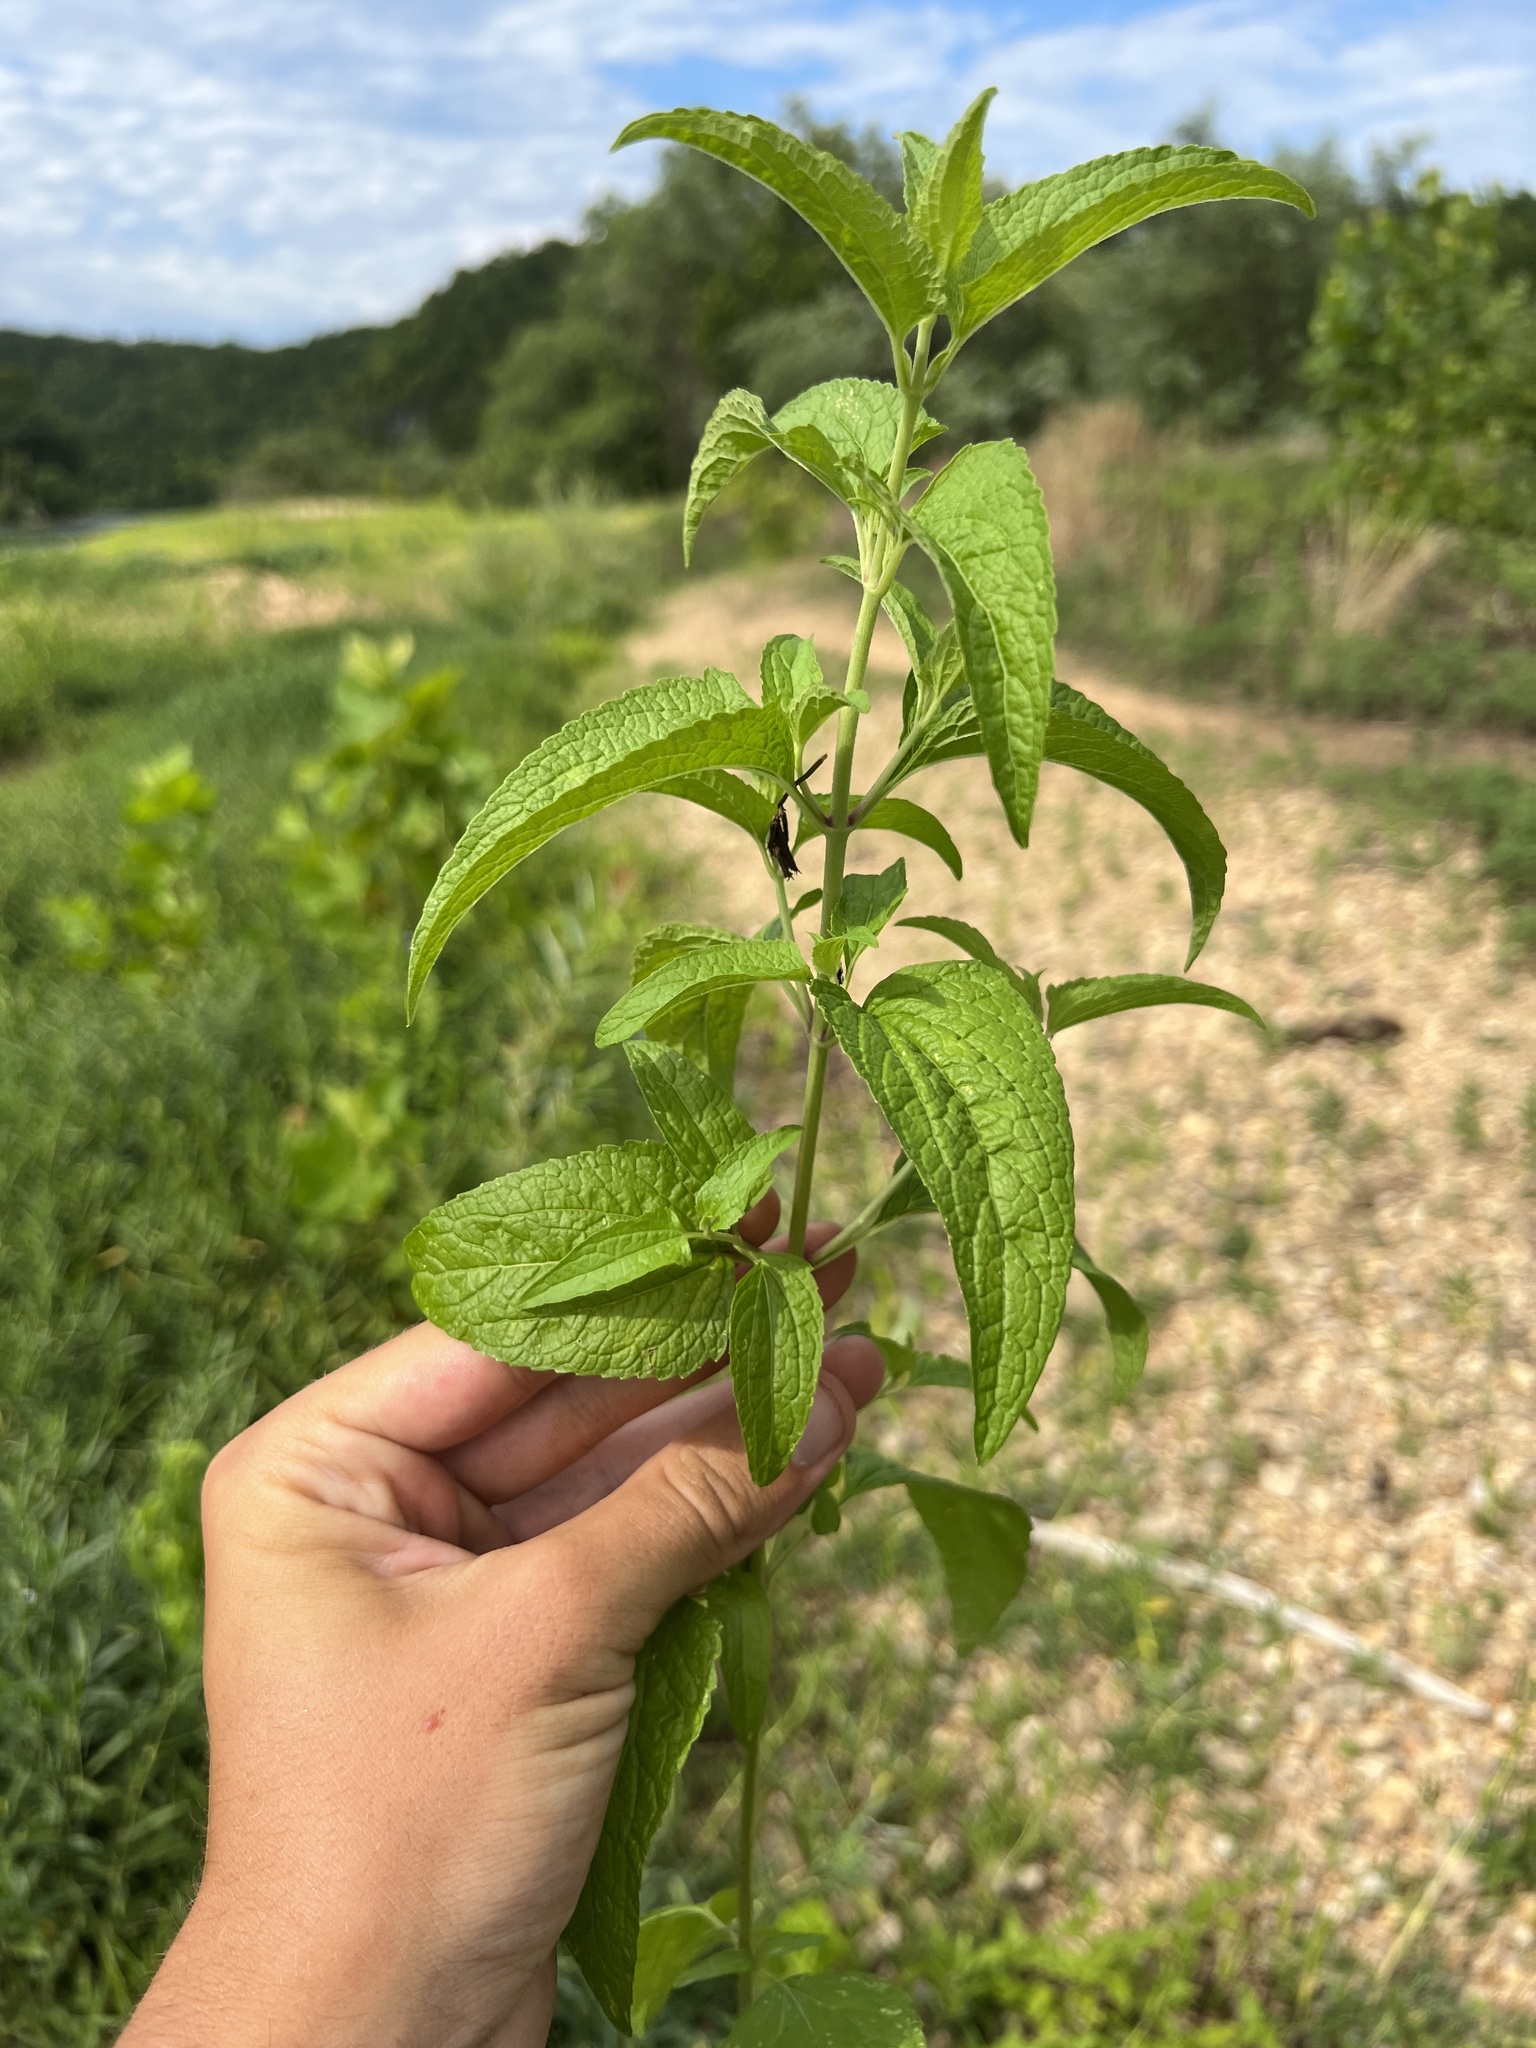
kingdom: Plantae
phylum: Tracheophyta
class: Magnoliopsida
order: Asterales
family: Asteraceae
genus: Conoclinium
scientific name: Conoclinium coelestinum
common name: Blue mistflower
